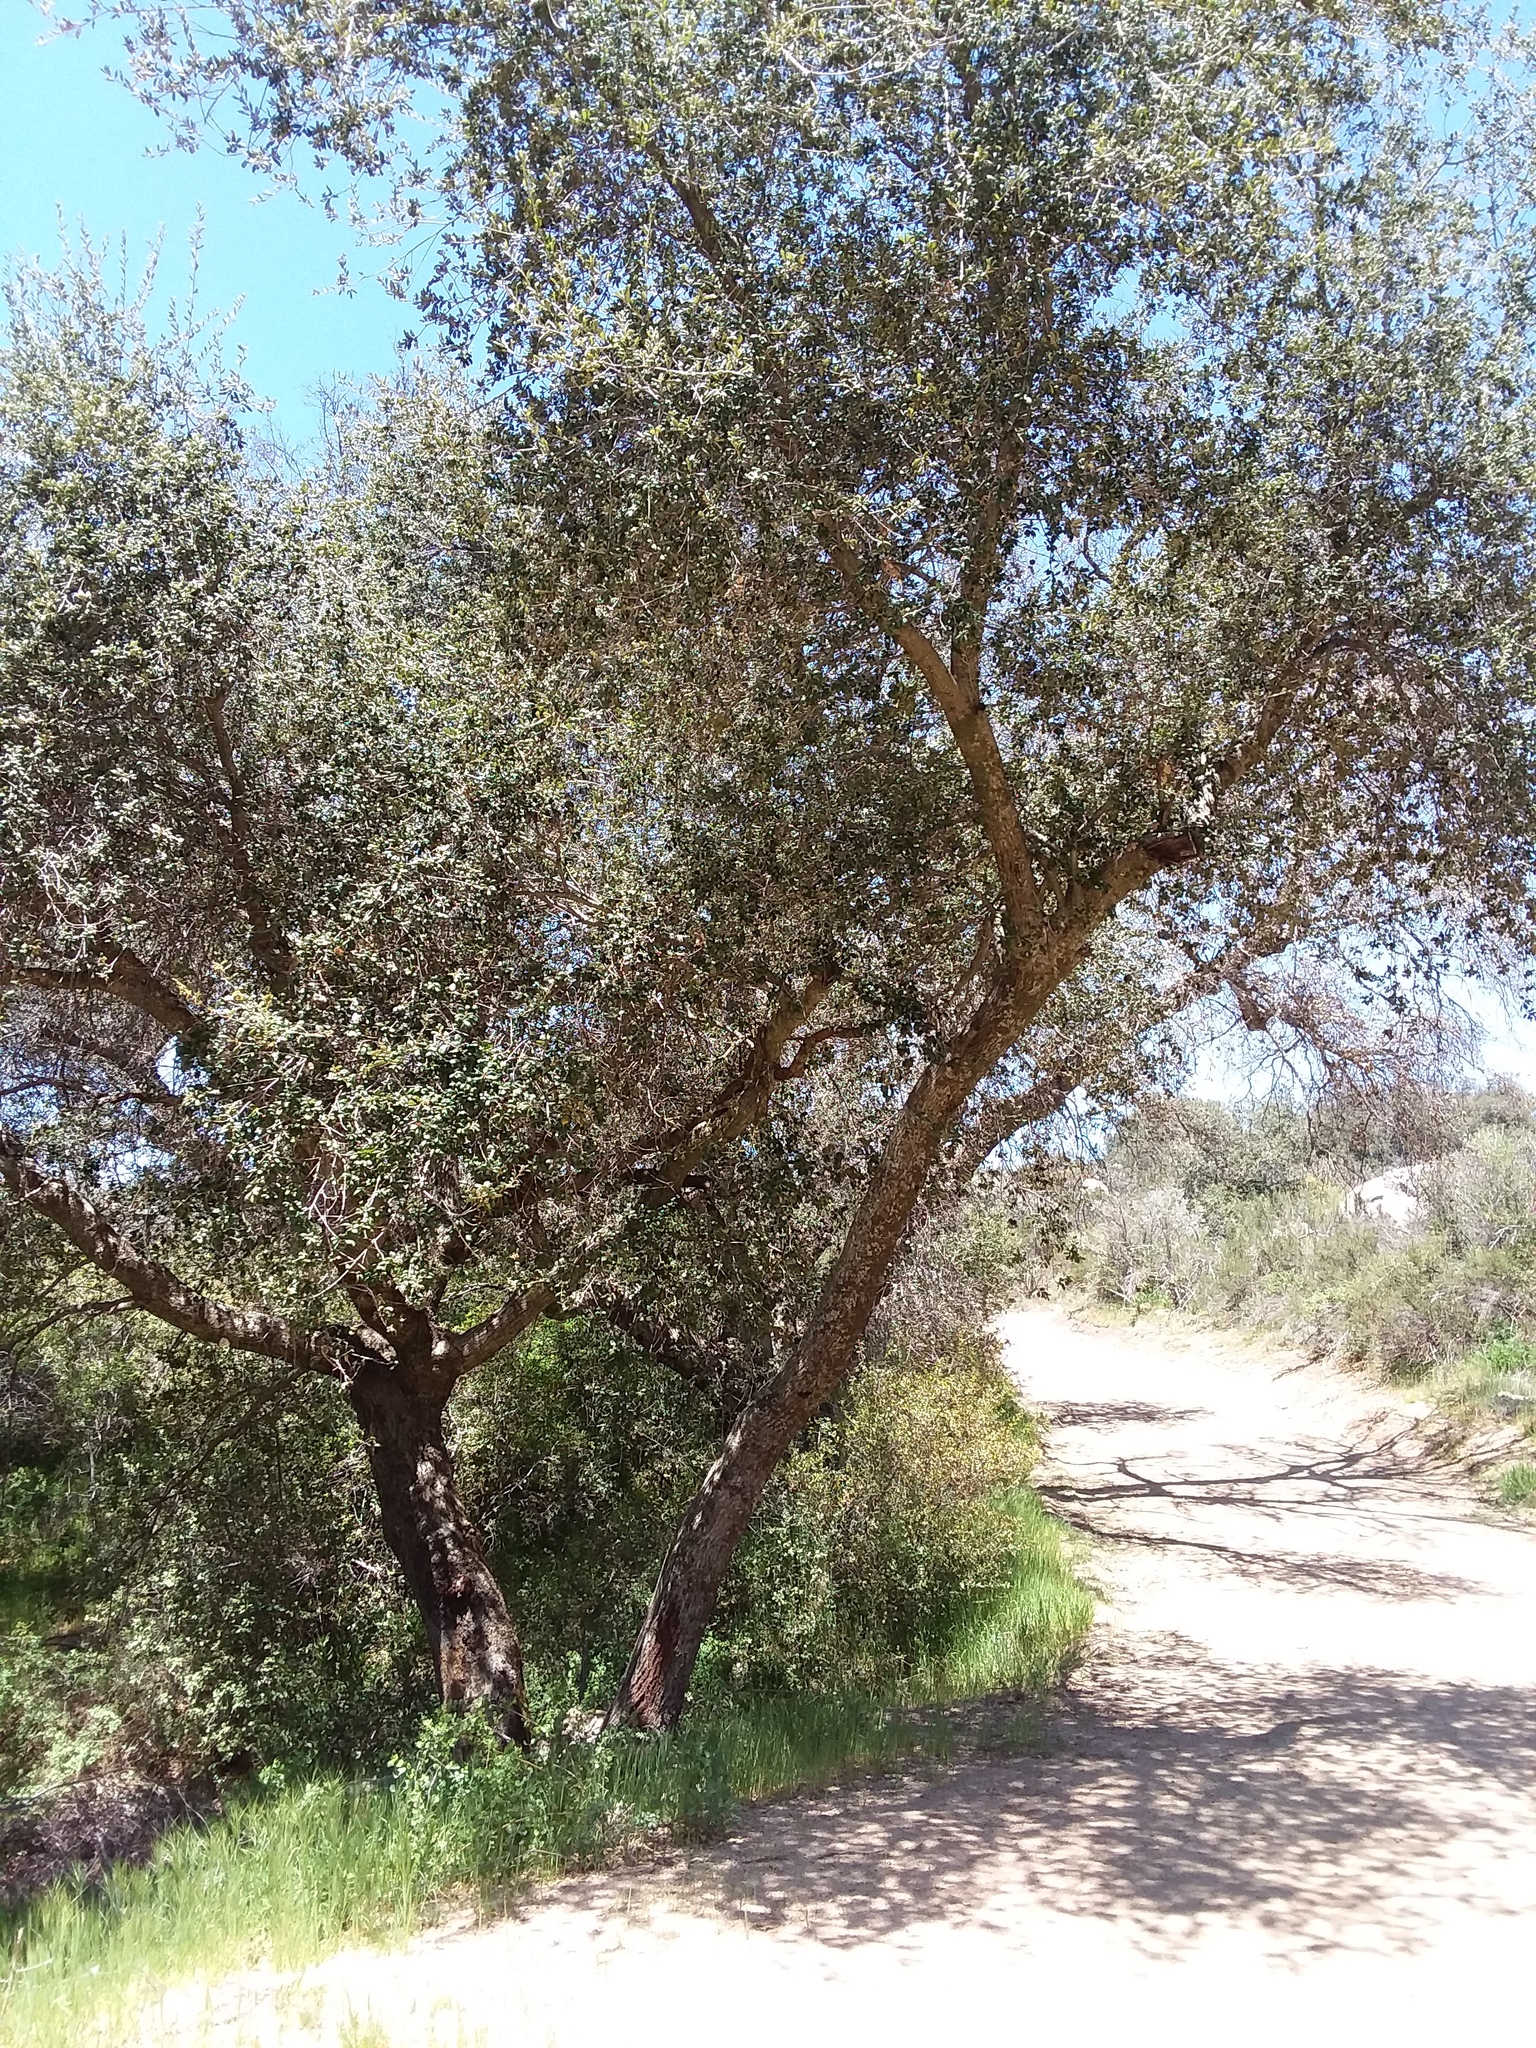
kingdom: Plantae
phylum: Tracheophyta
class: Magnoliopsida
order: Fagales
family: Fagaceae
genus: Quercus
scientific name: Quercus agrifolia
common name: California live oak
